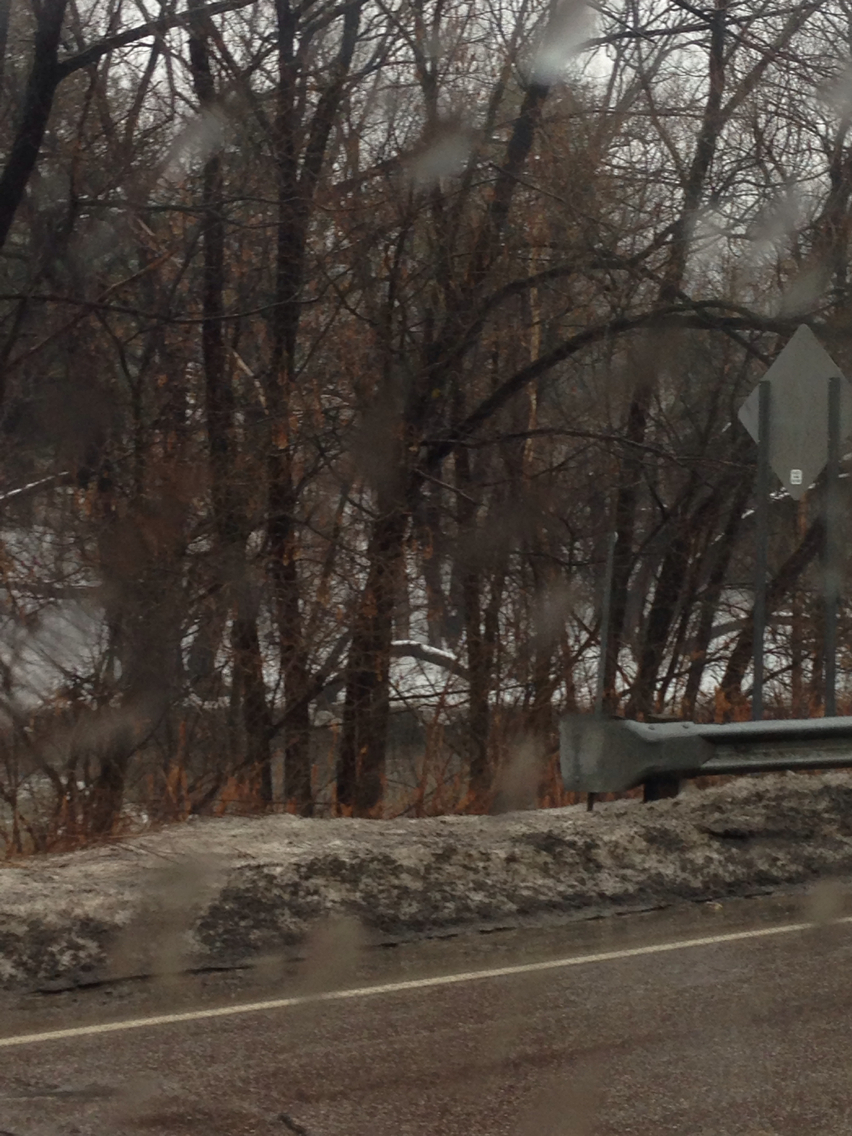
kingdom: Plantae
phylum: Tracheophyta
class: Magnoliopsida
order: Sapindales
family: Sapindaceae
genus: Acer
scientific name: Acer negundo
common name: Ashleaf maple
